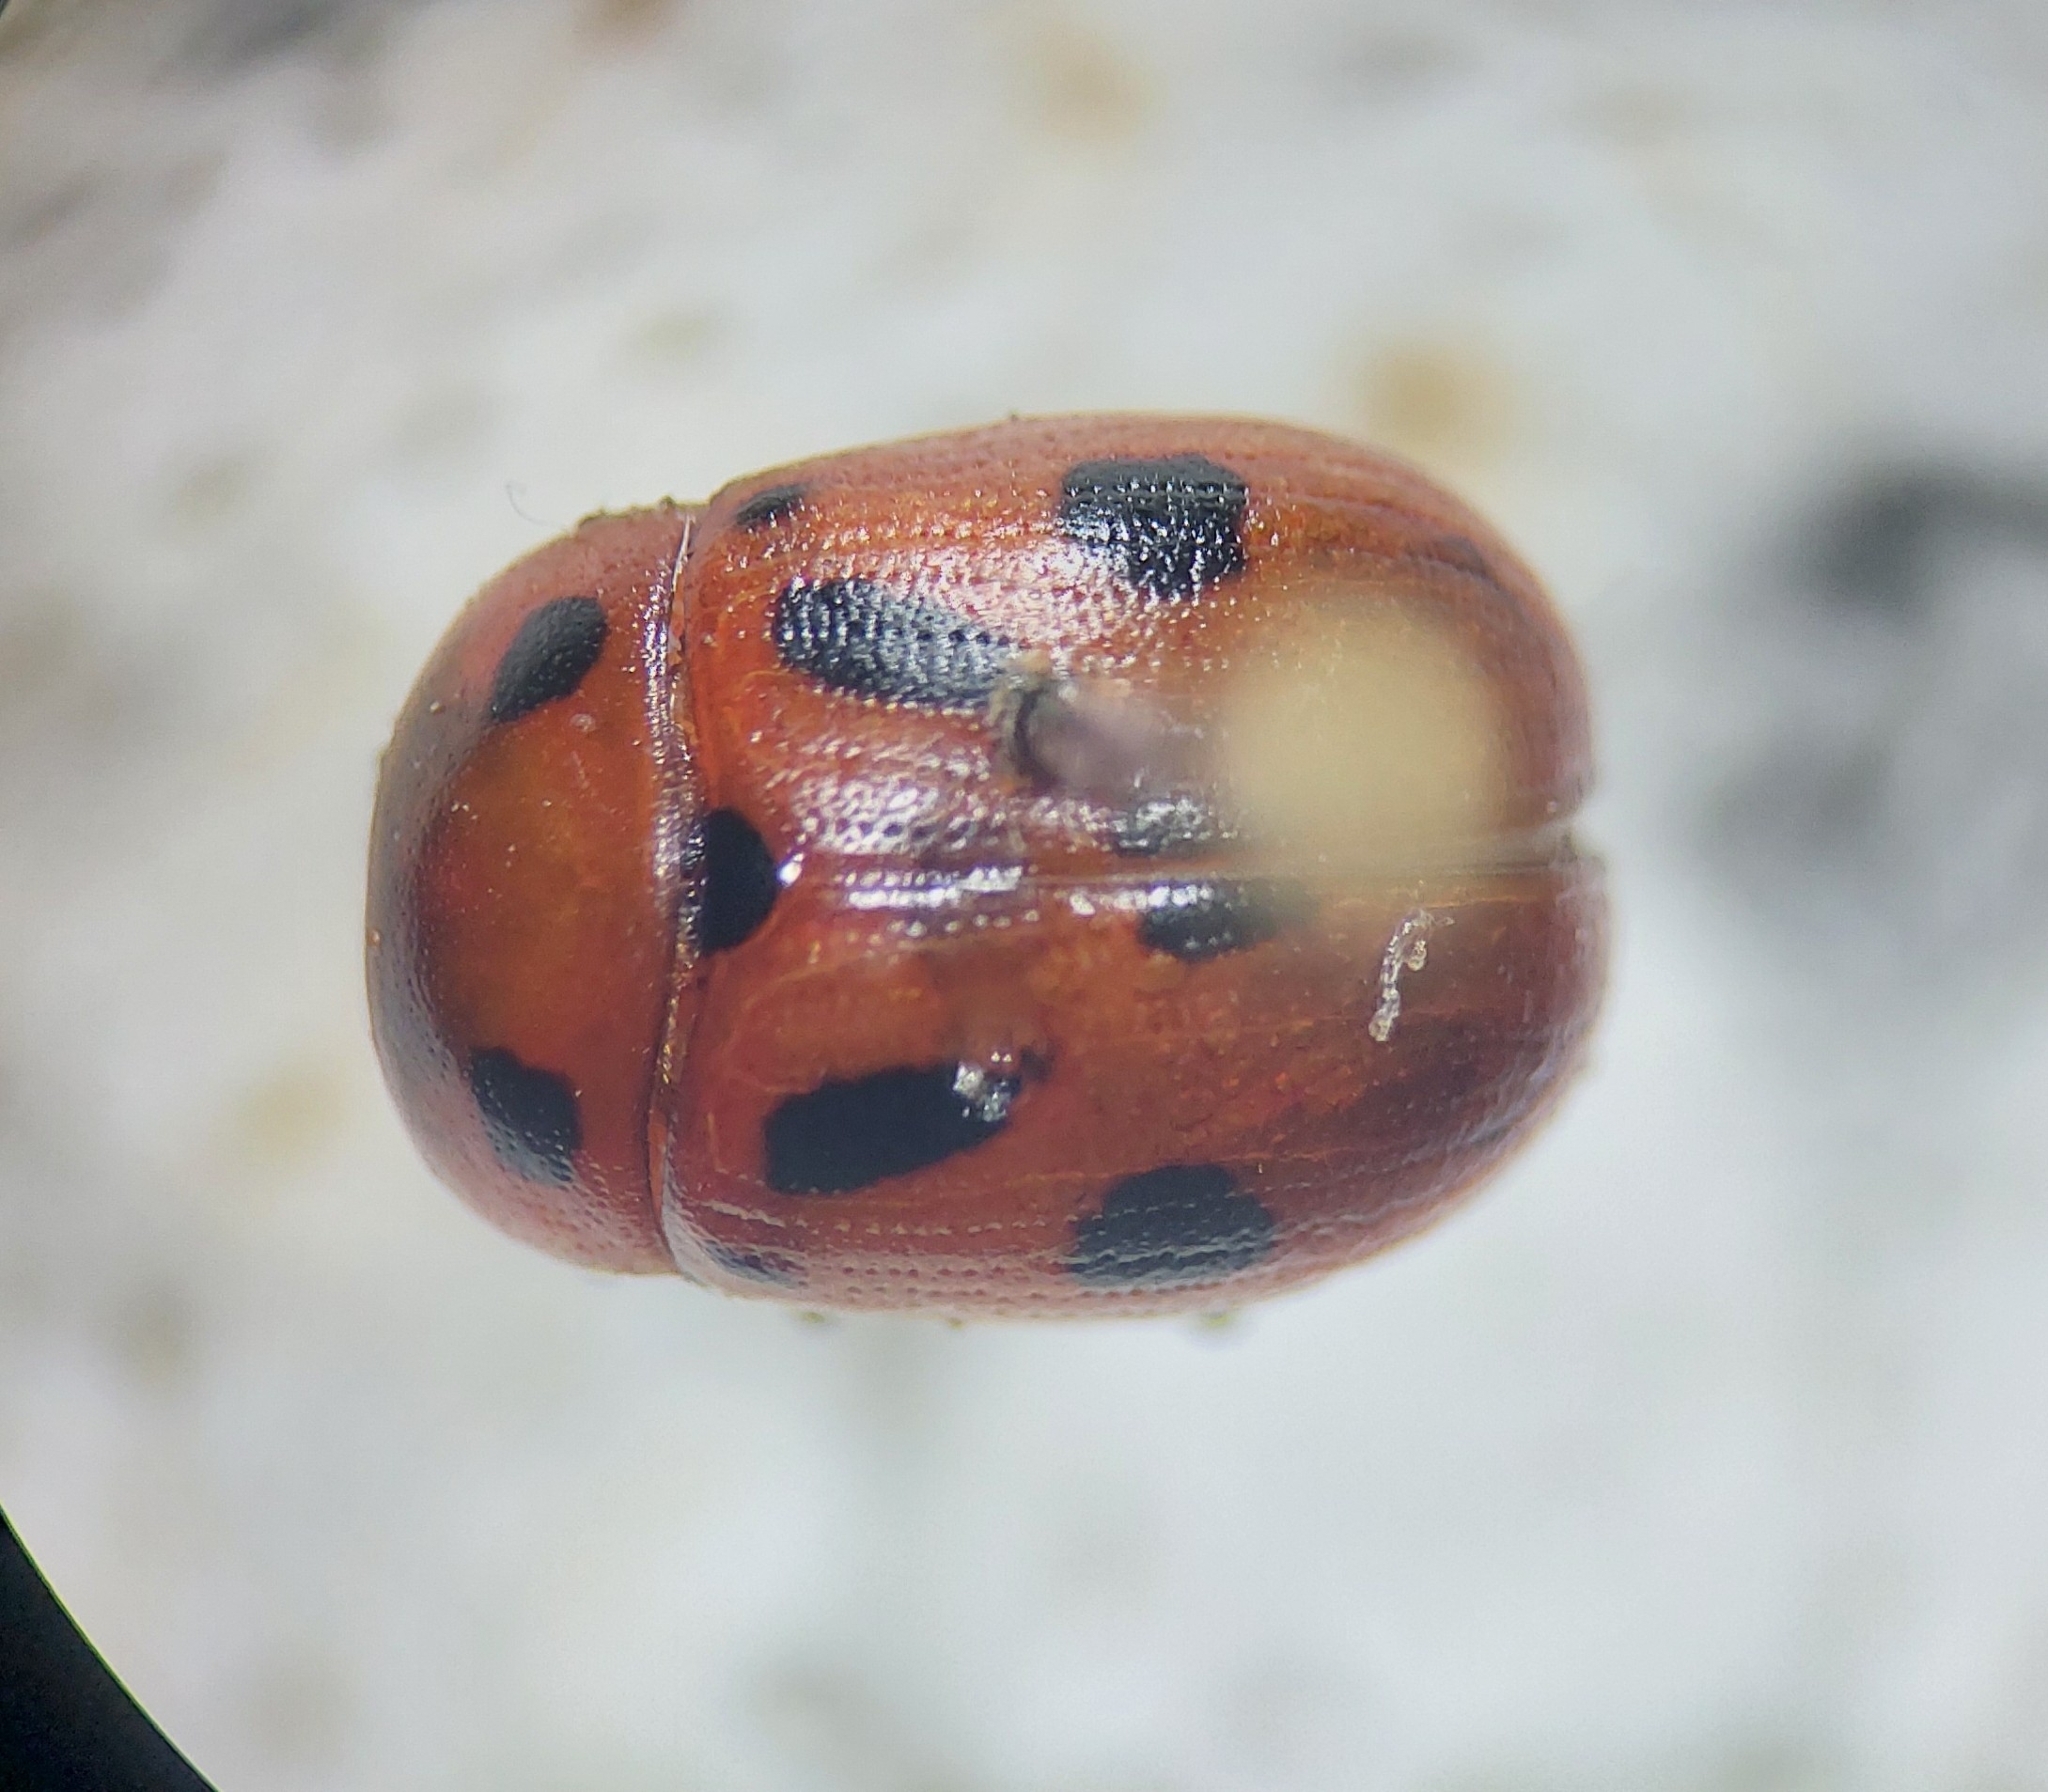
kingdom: Animalia
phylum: Arthropoda
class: Insecta
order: Coleoptera
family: Chrysomelidae
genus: Gonioctena
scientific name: Gonioctena fornicata
